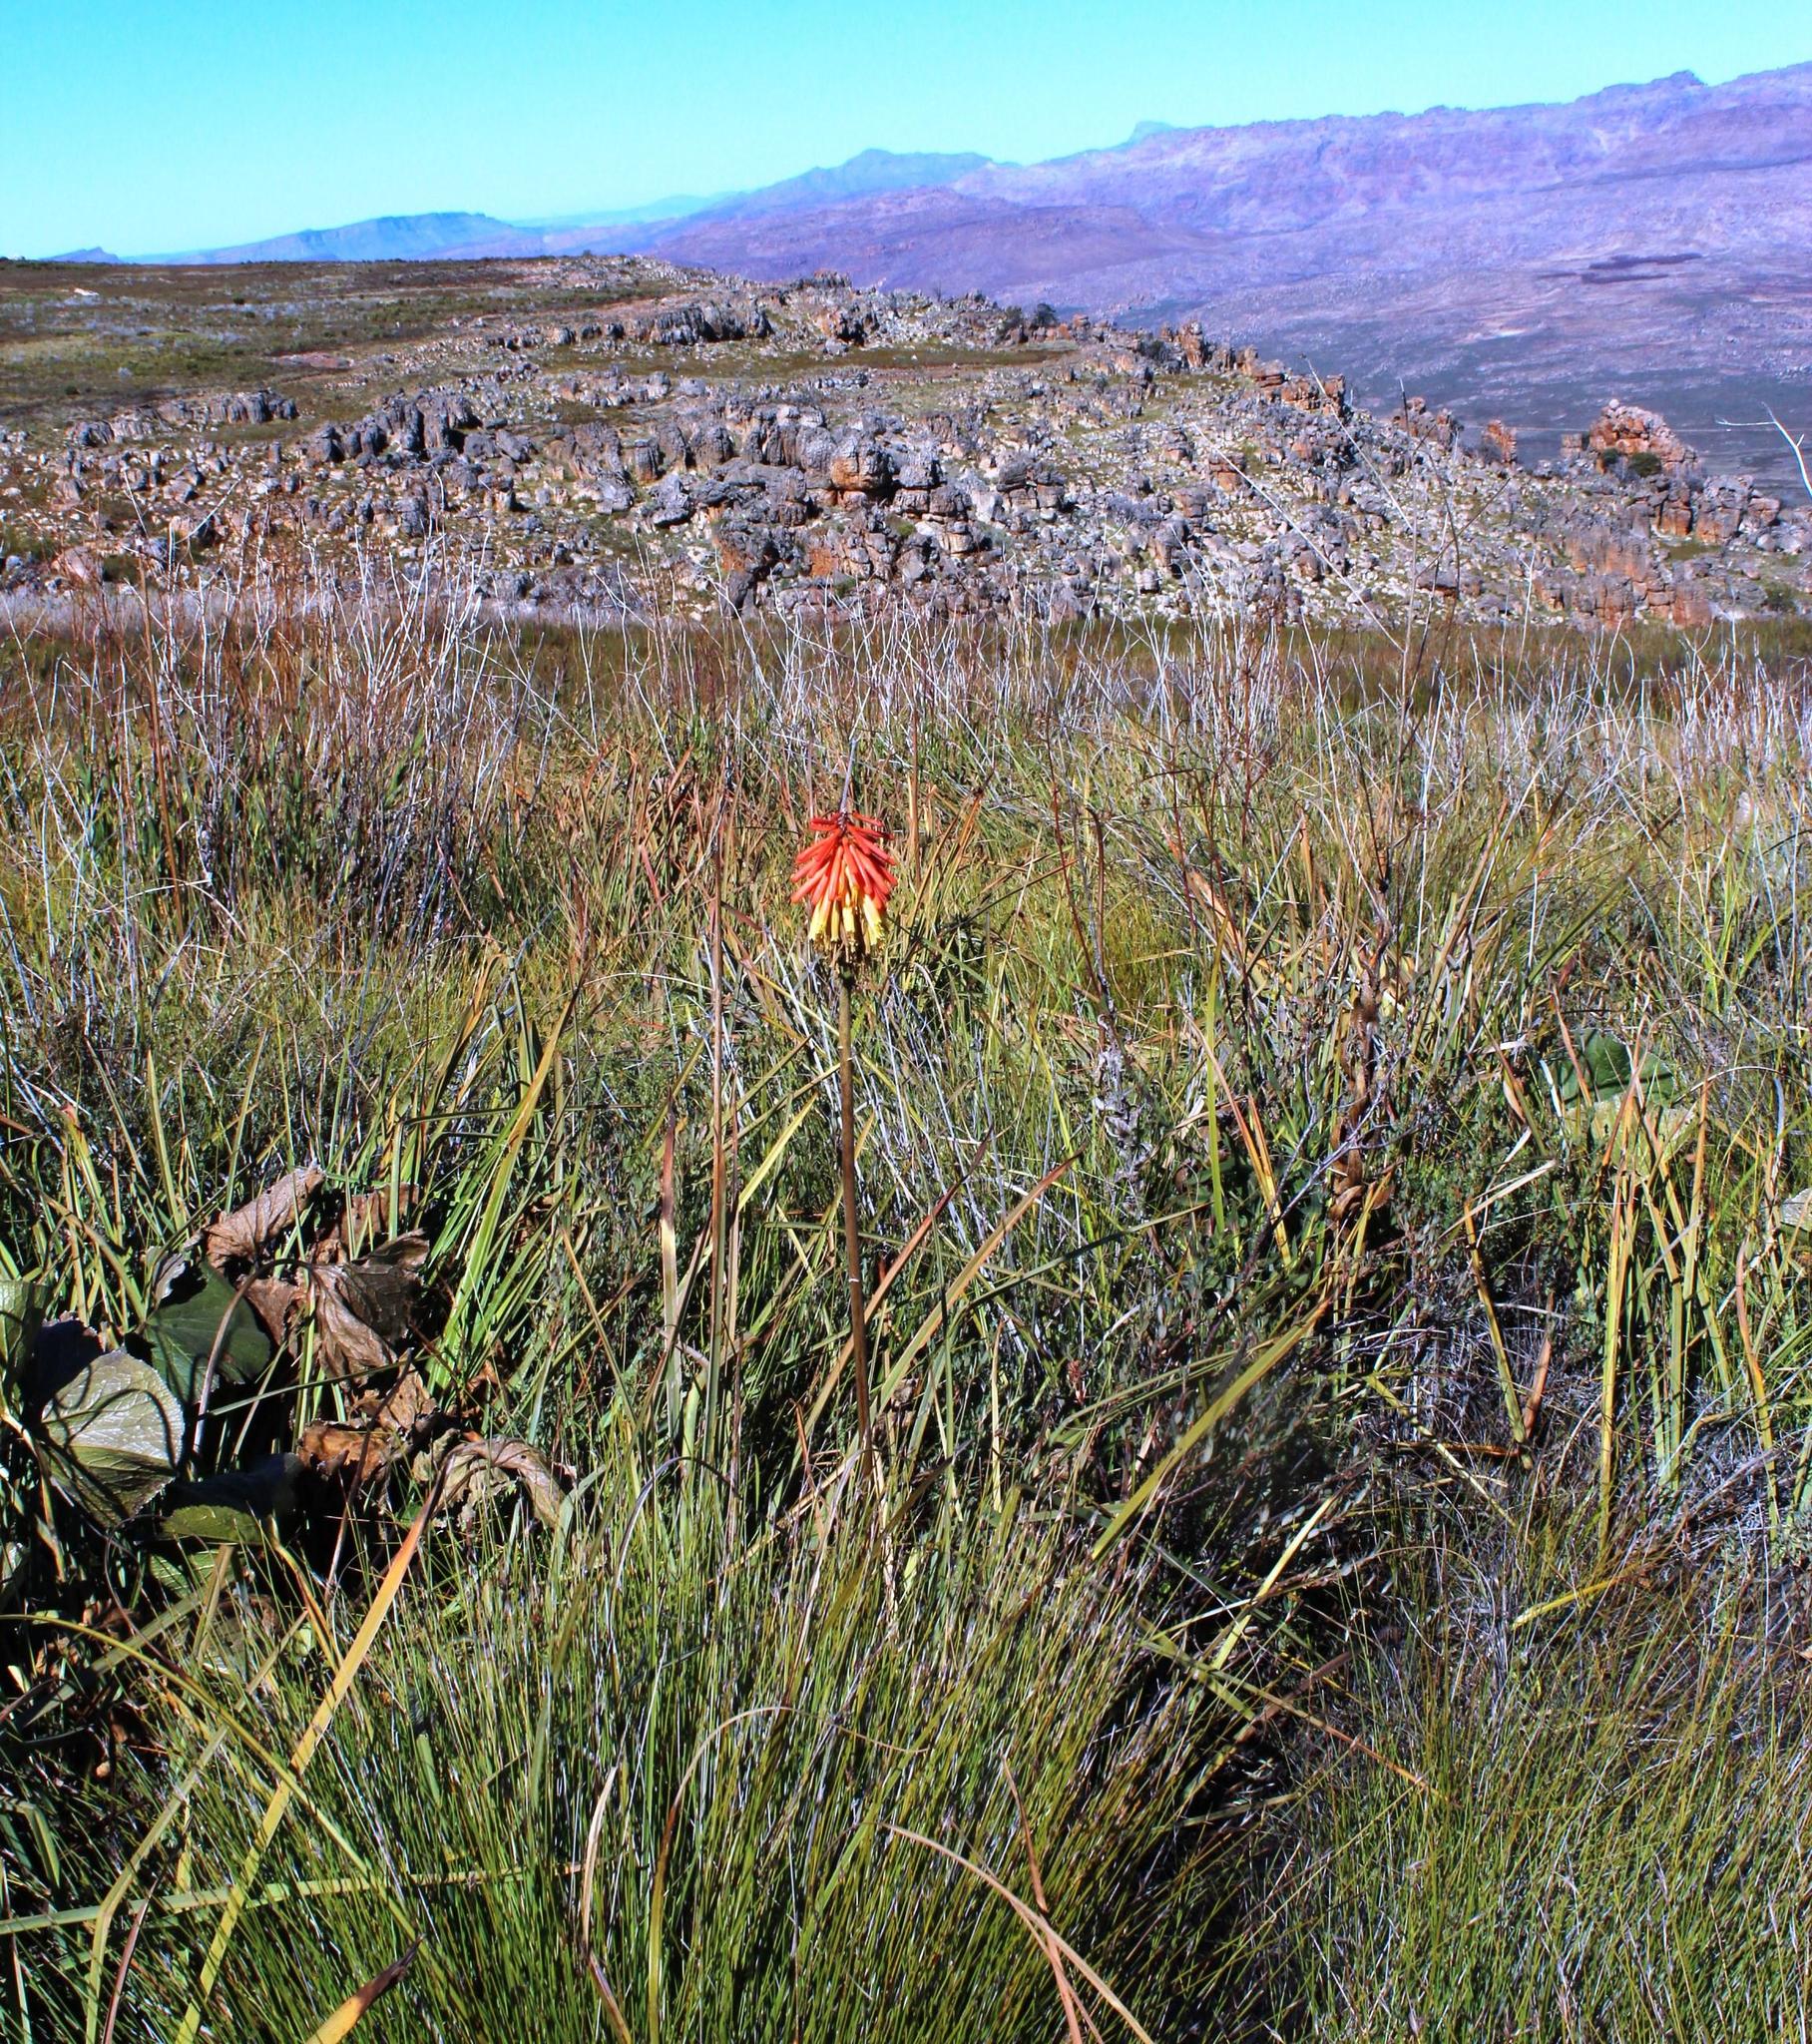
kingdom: Plantae
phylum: Tracheophyta
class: Liliopsida
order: Asparagales
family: Asphodelaceae
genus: Kniphofia
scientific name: Kniphofia uvaria
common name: Red-hot-poker
